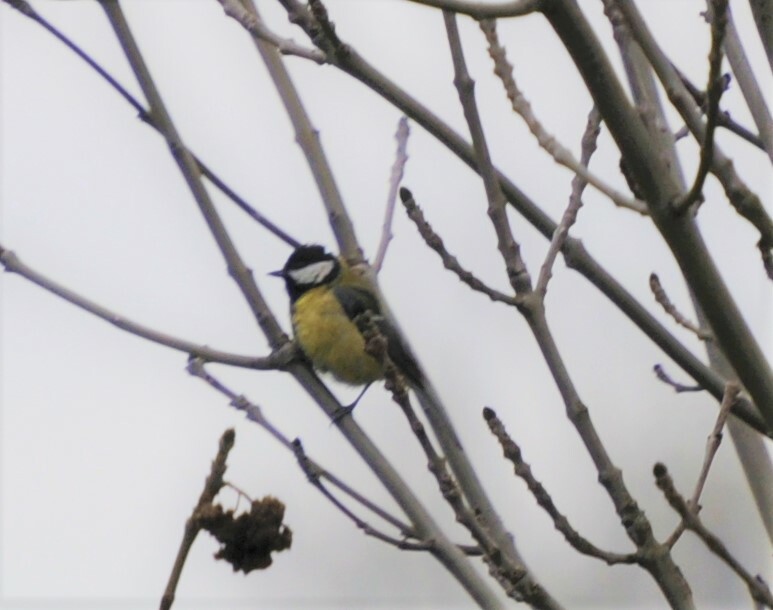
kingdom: Animalia
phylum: Chordata
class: Aves
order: Passeriformes
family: Paridae
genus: Parus
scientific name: Parus major
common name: Great tit
